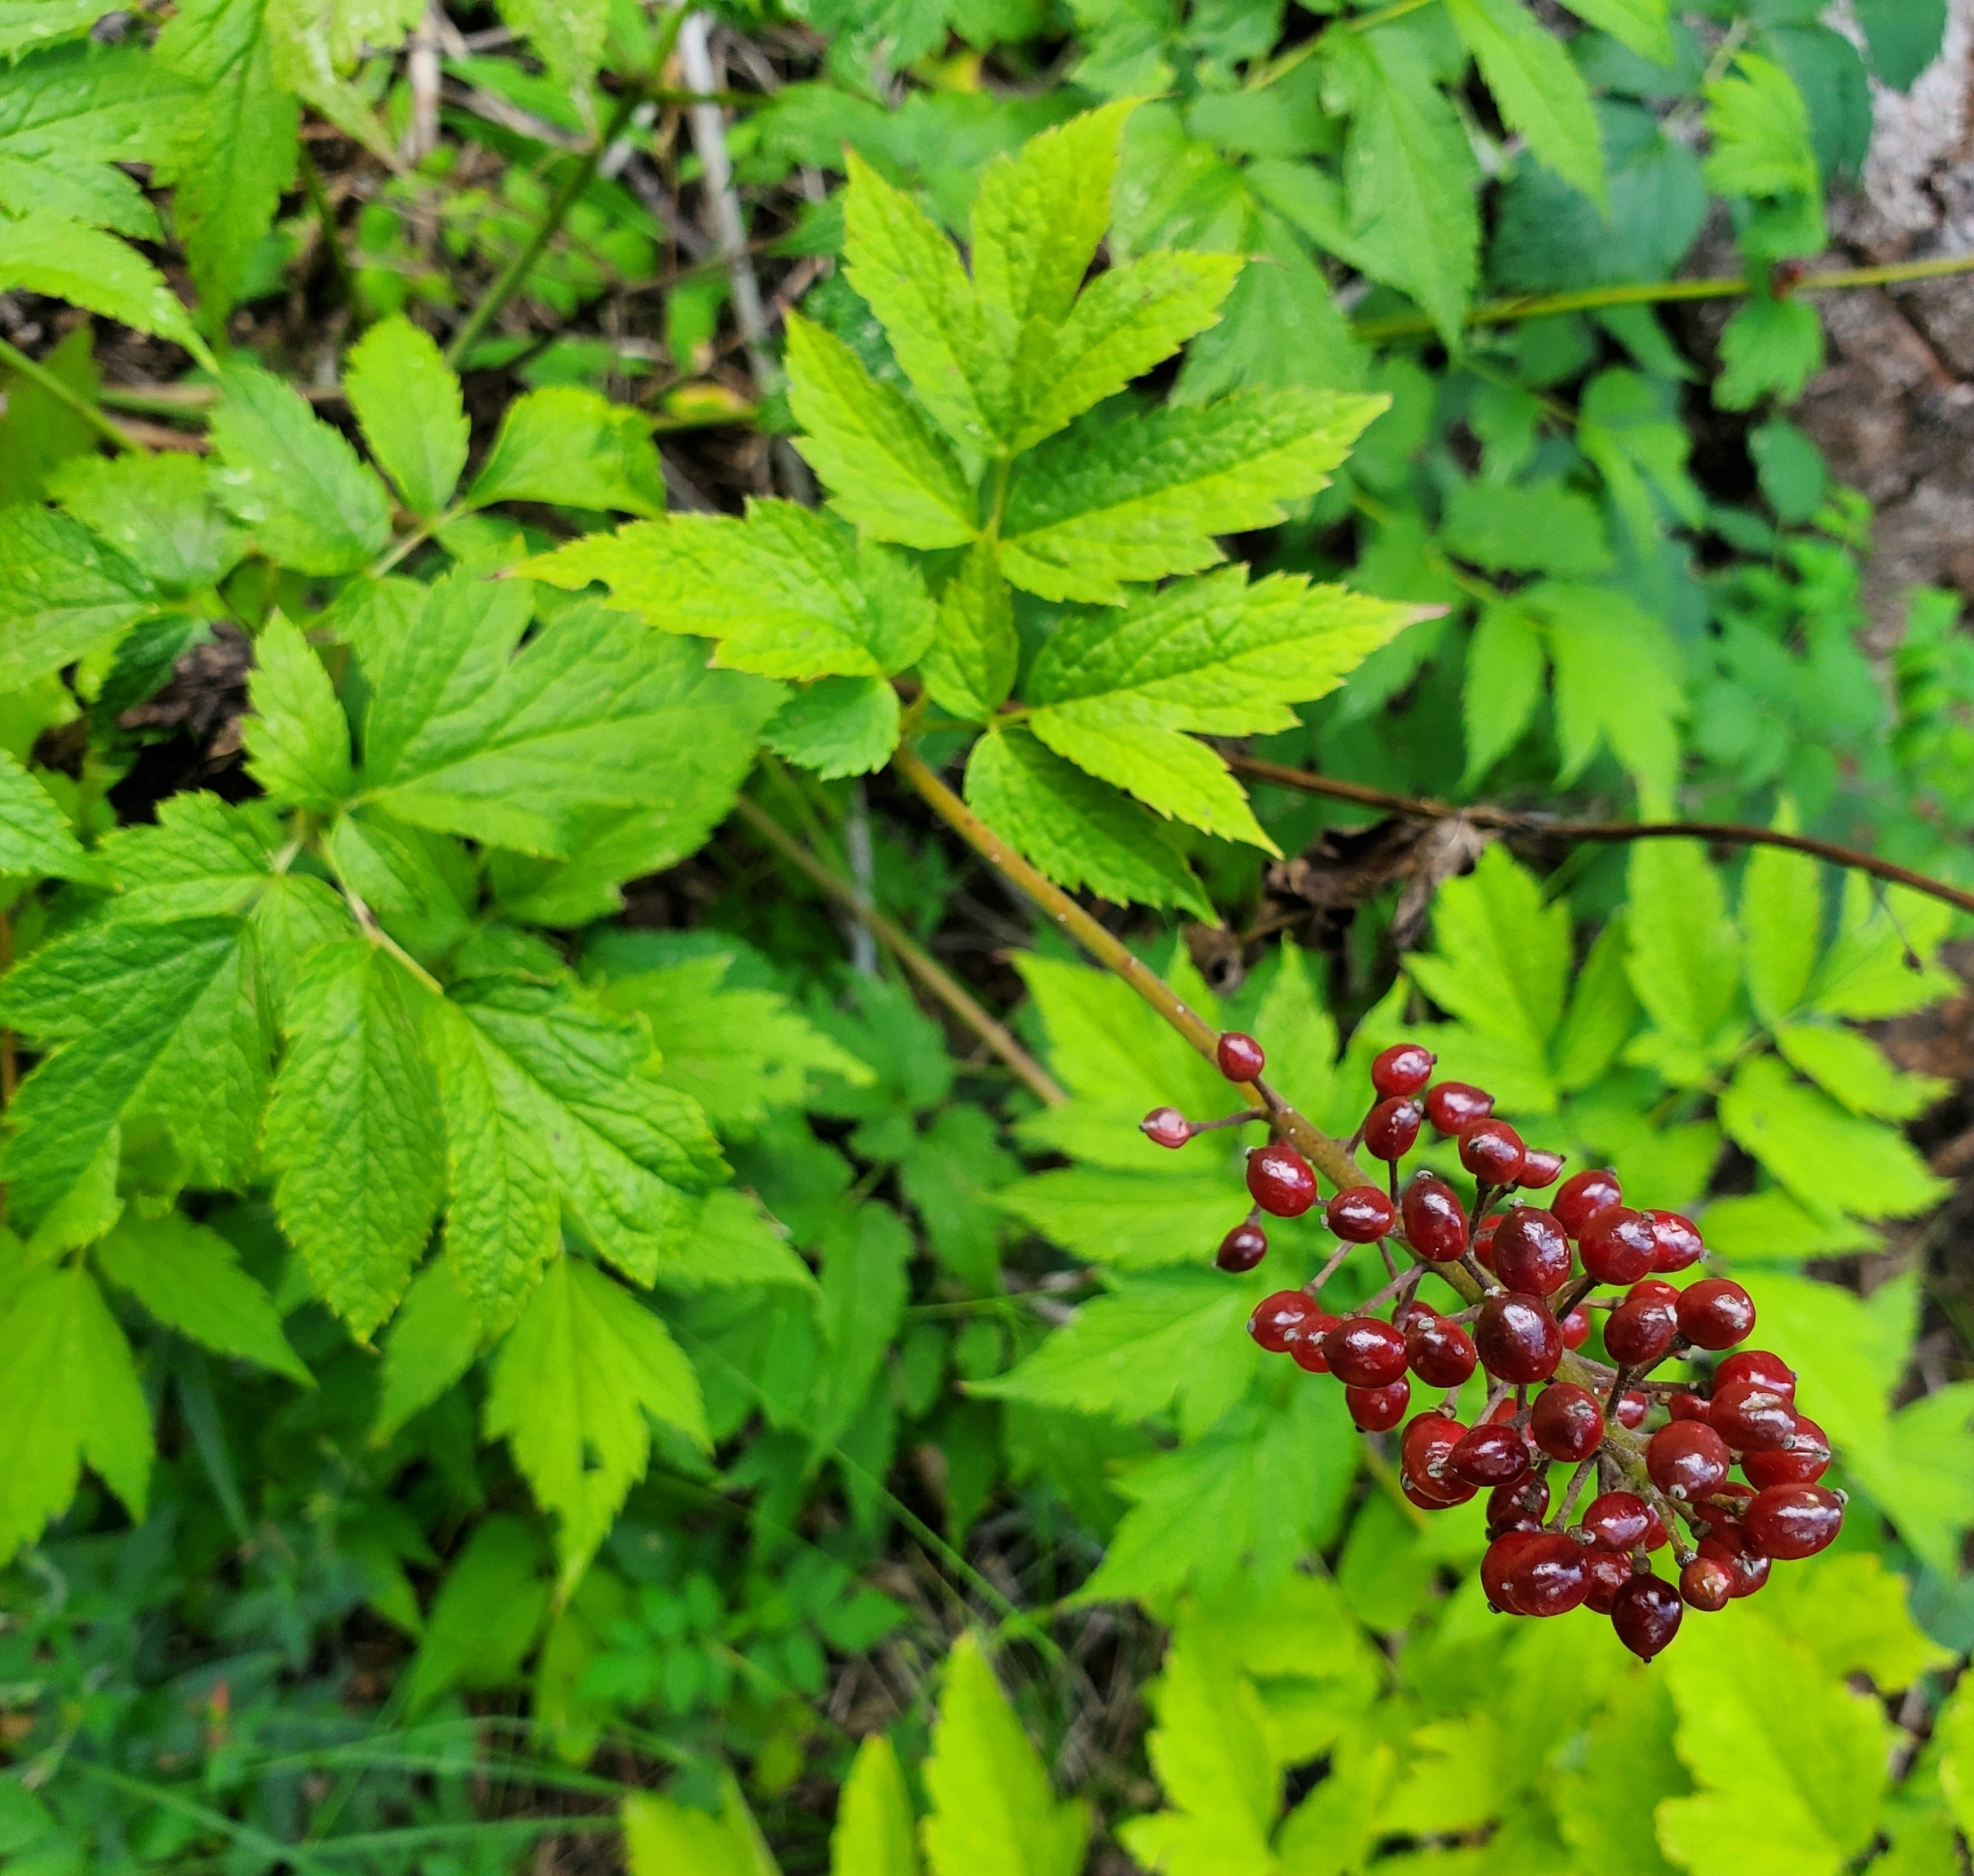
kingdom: Plantae
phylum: Tracheophyta
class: Magnoliopsida
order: Ranunculales
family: Ranunculaceae
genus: Actaea
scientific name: Actaea rubra
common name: Red baneberry
